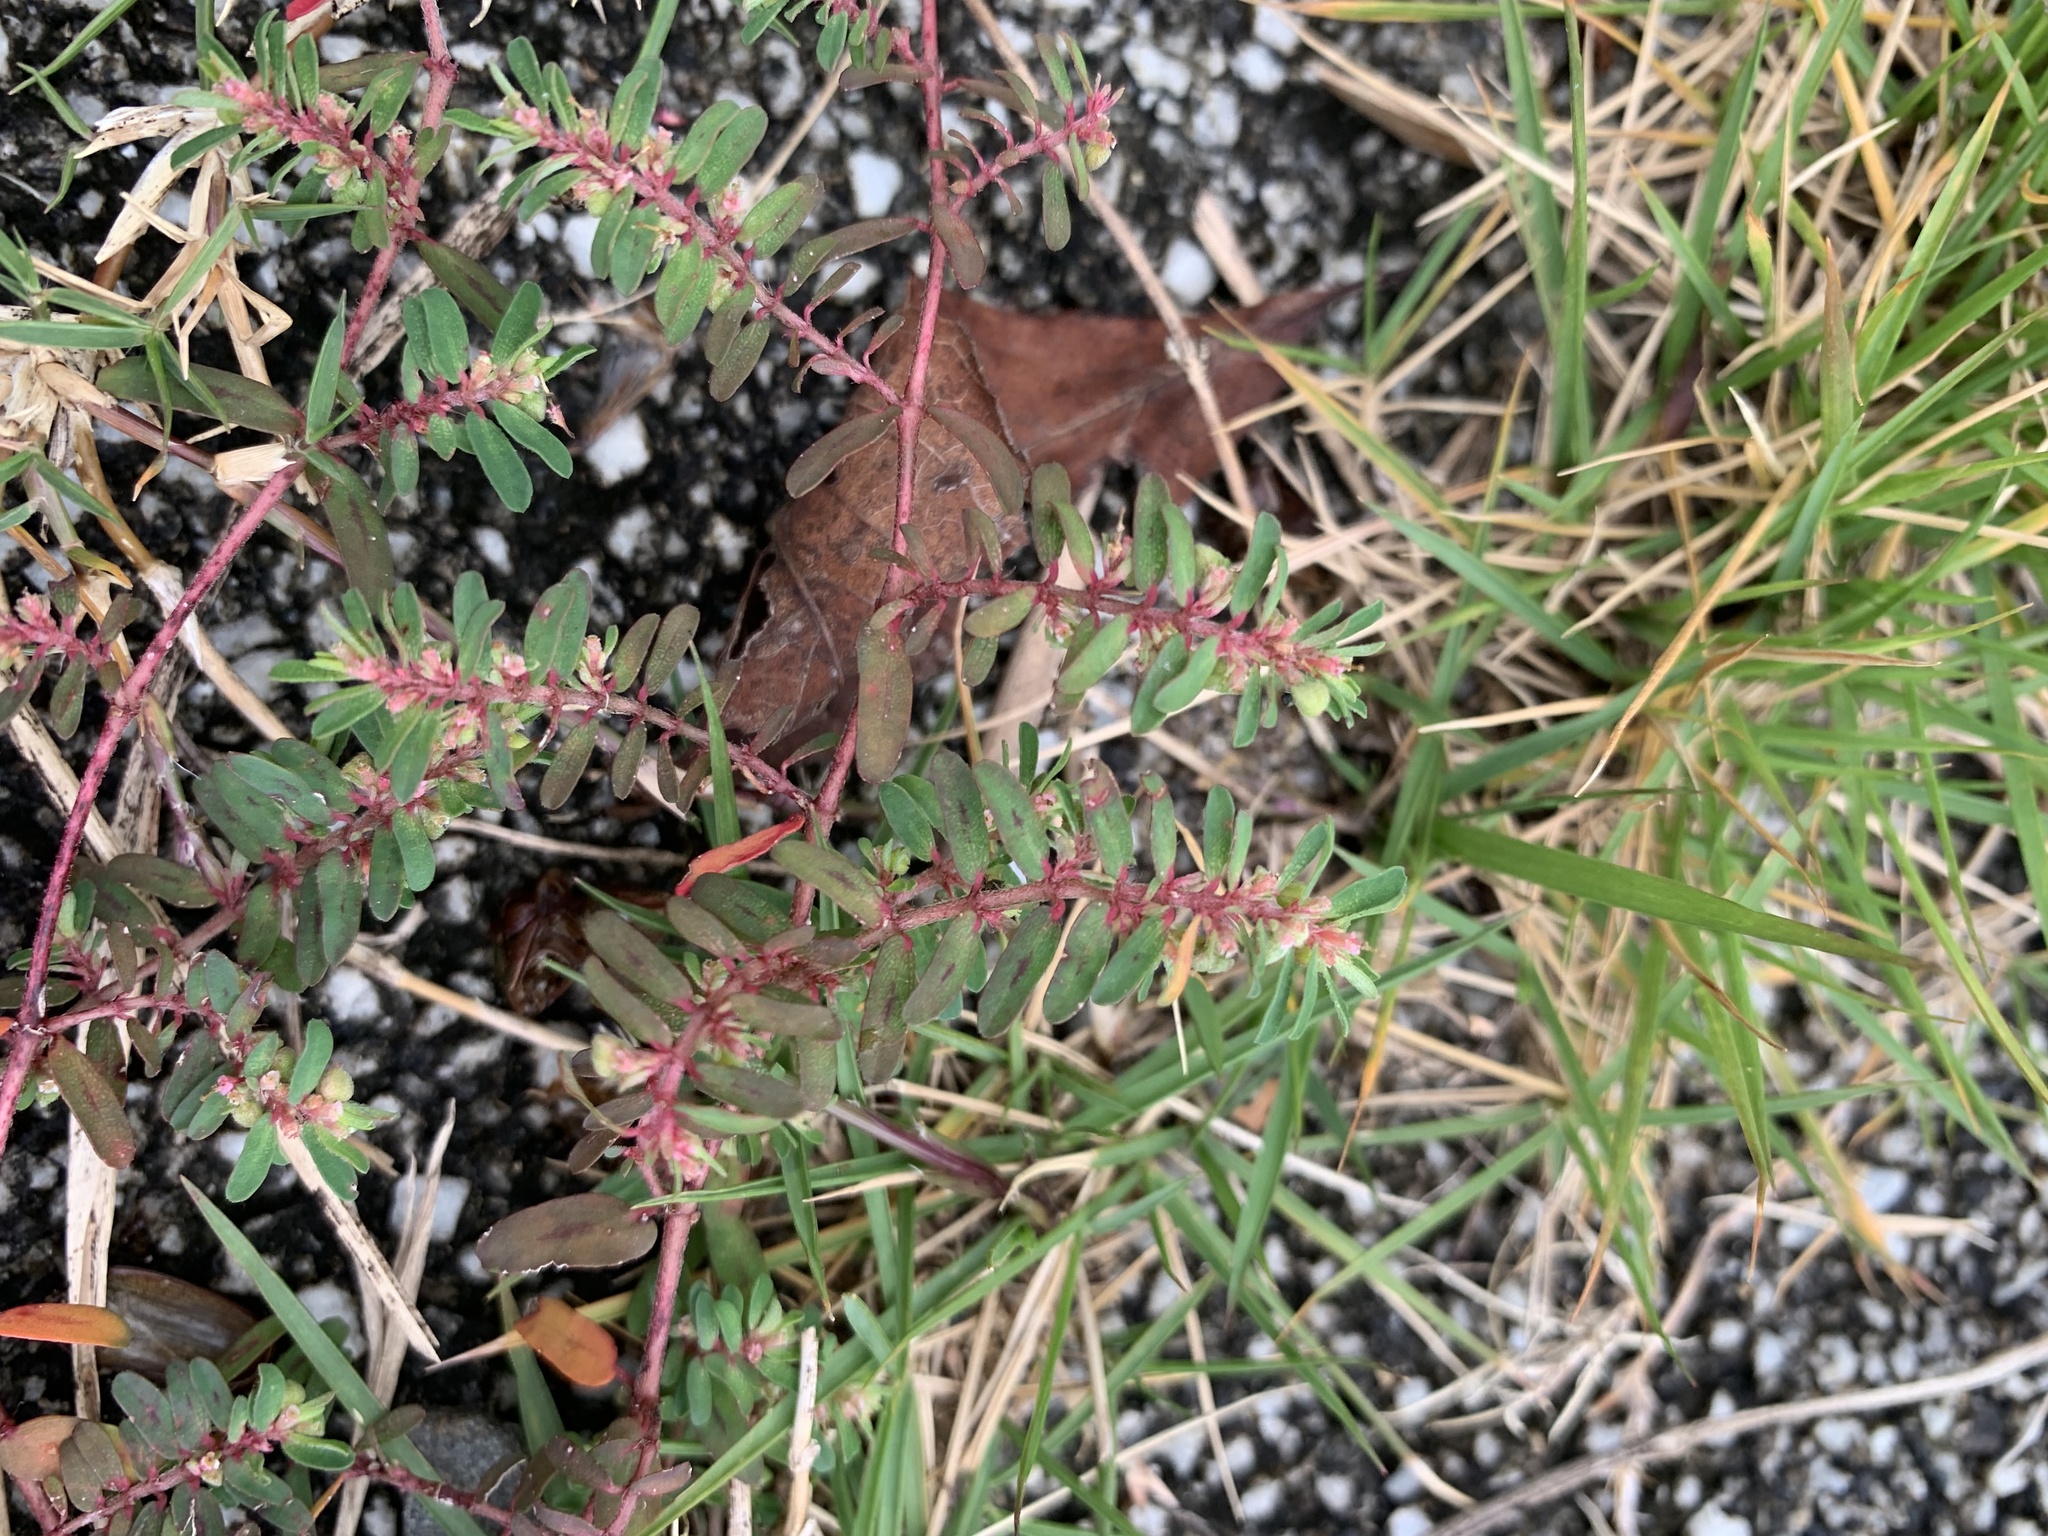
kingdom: Plantae
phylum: Tracheophyta
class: Magnoliopsida
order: Malpighiales
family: Euphorbiaceae
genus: Euphorbia
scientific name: Euphorbia maculata
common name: Spotted spurge
